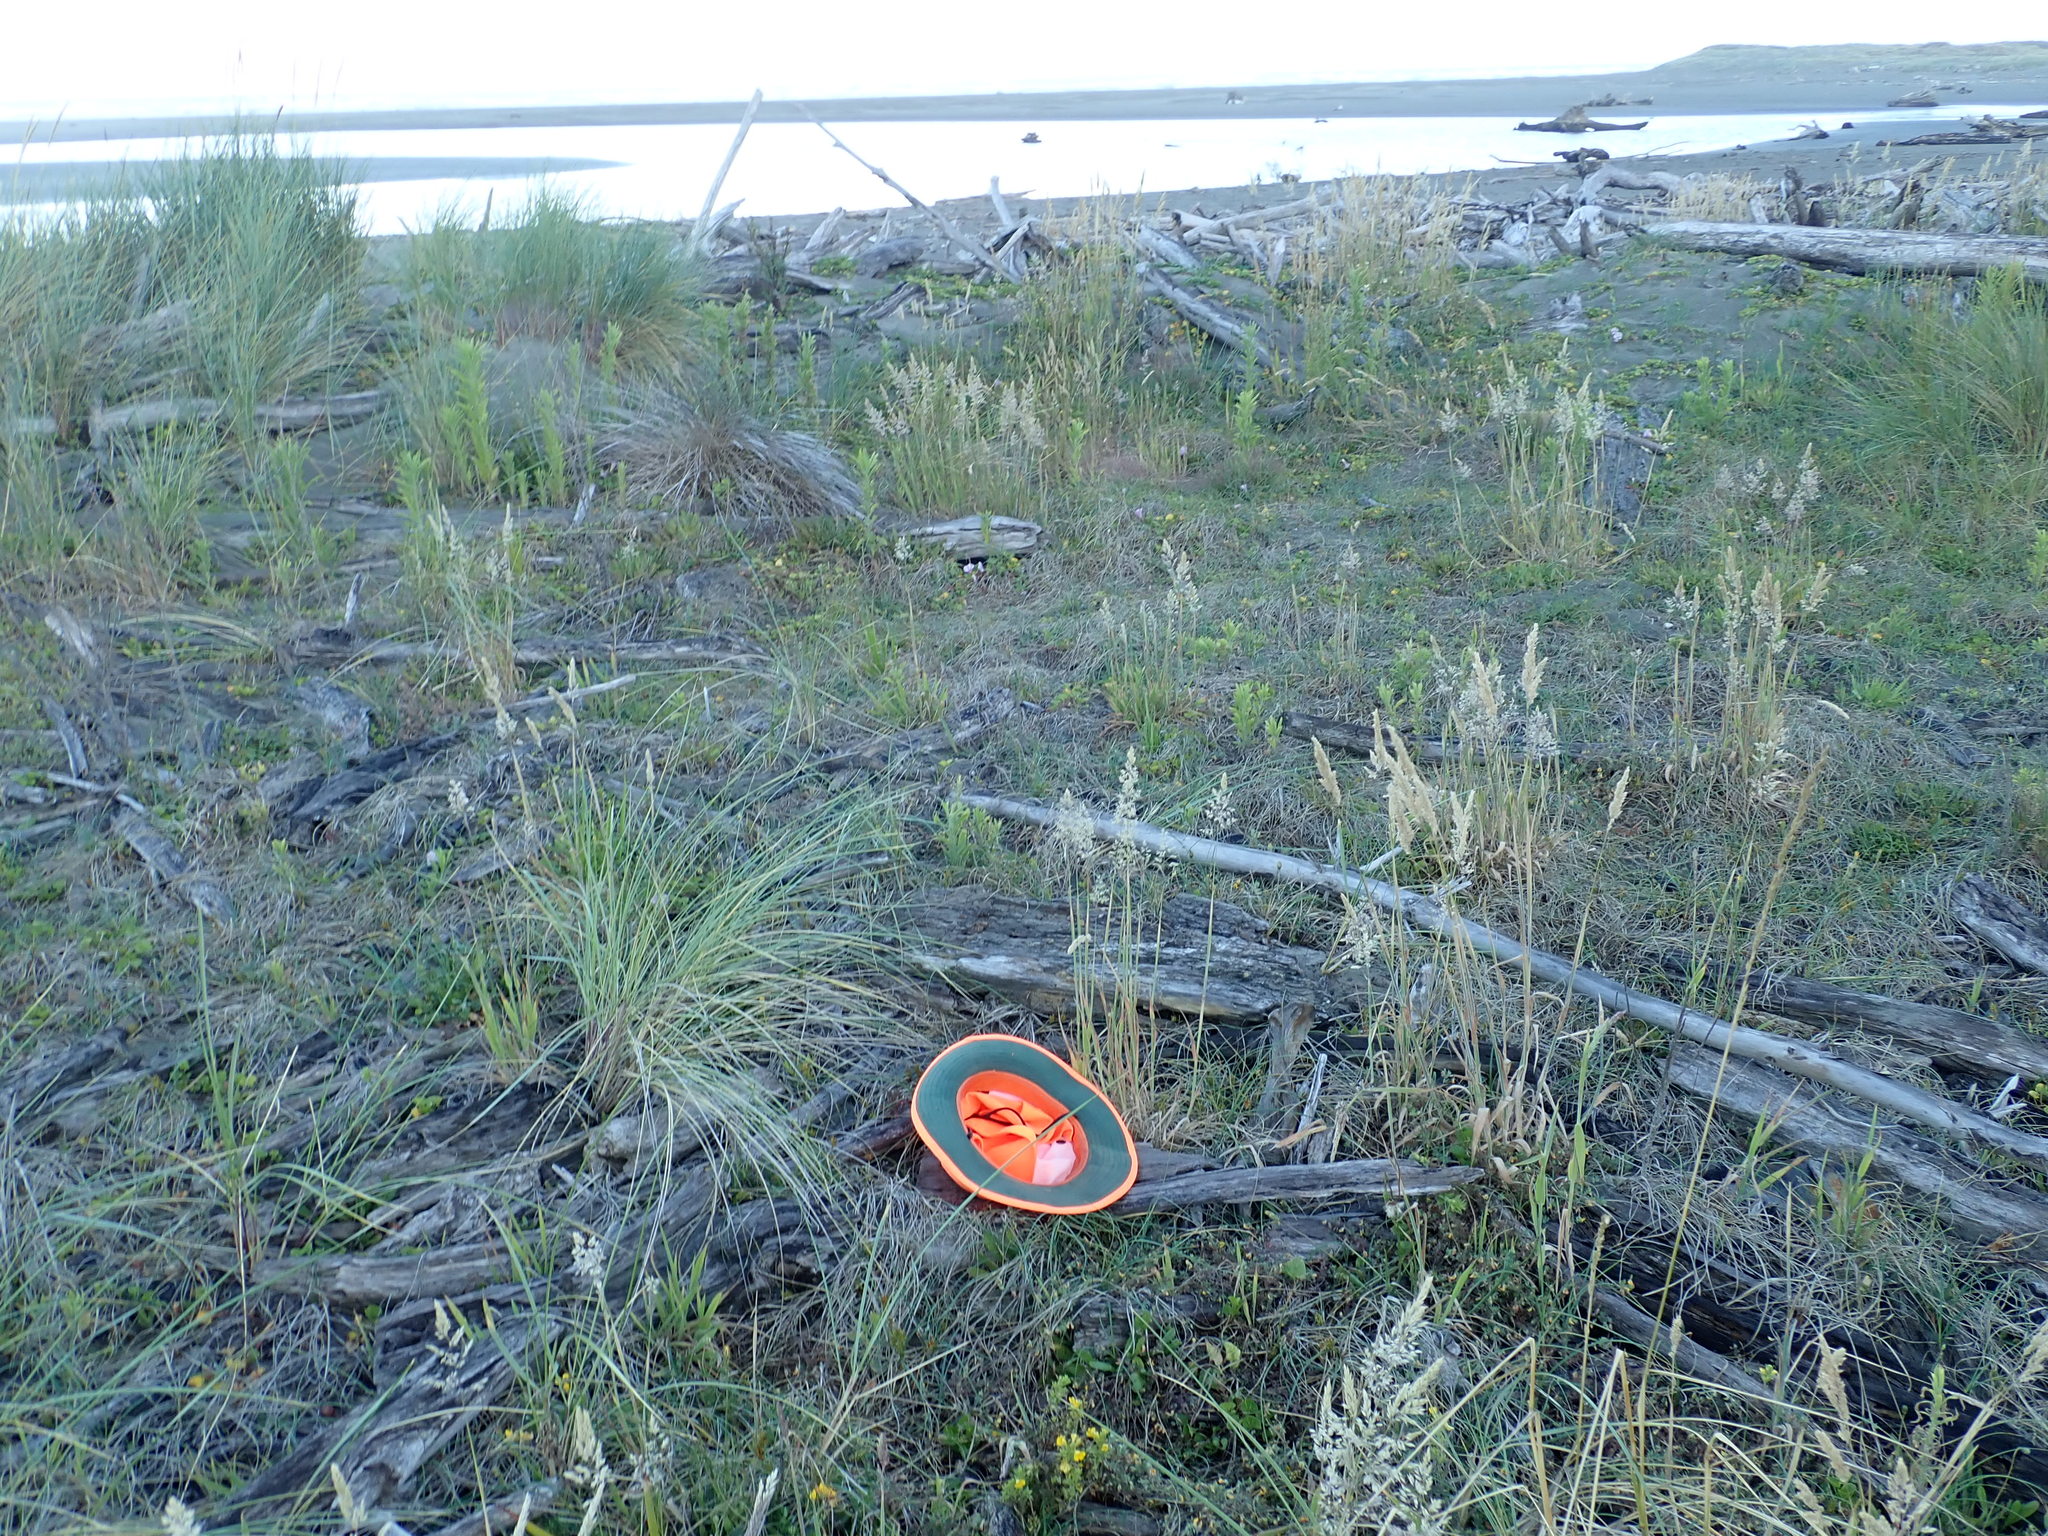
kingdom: Animalia
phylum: Arthropoda
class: Insecta
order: Coleoptera
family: Curculionidae
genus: Mesites
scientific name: Mesites pallidipennis
